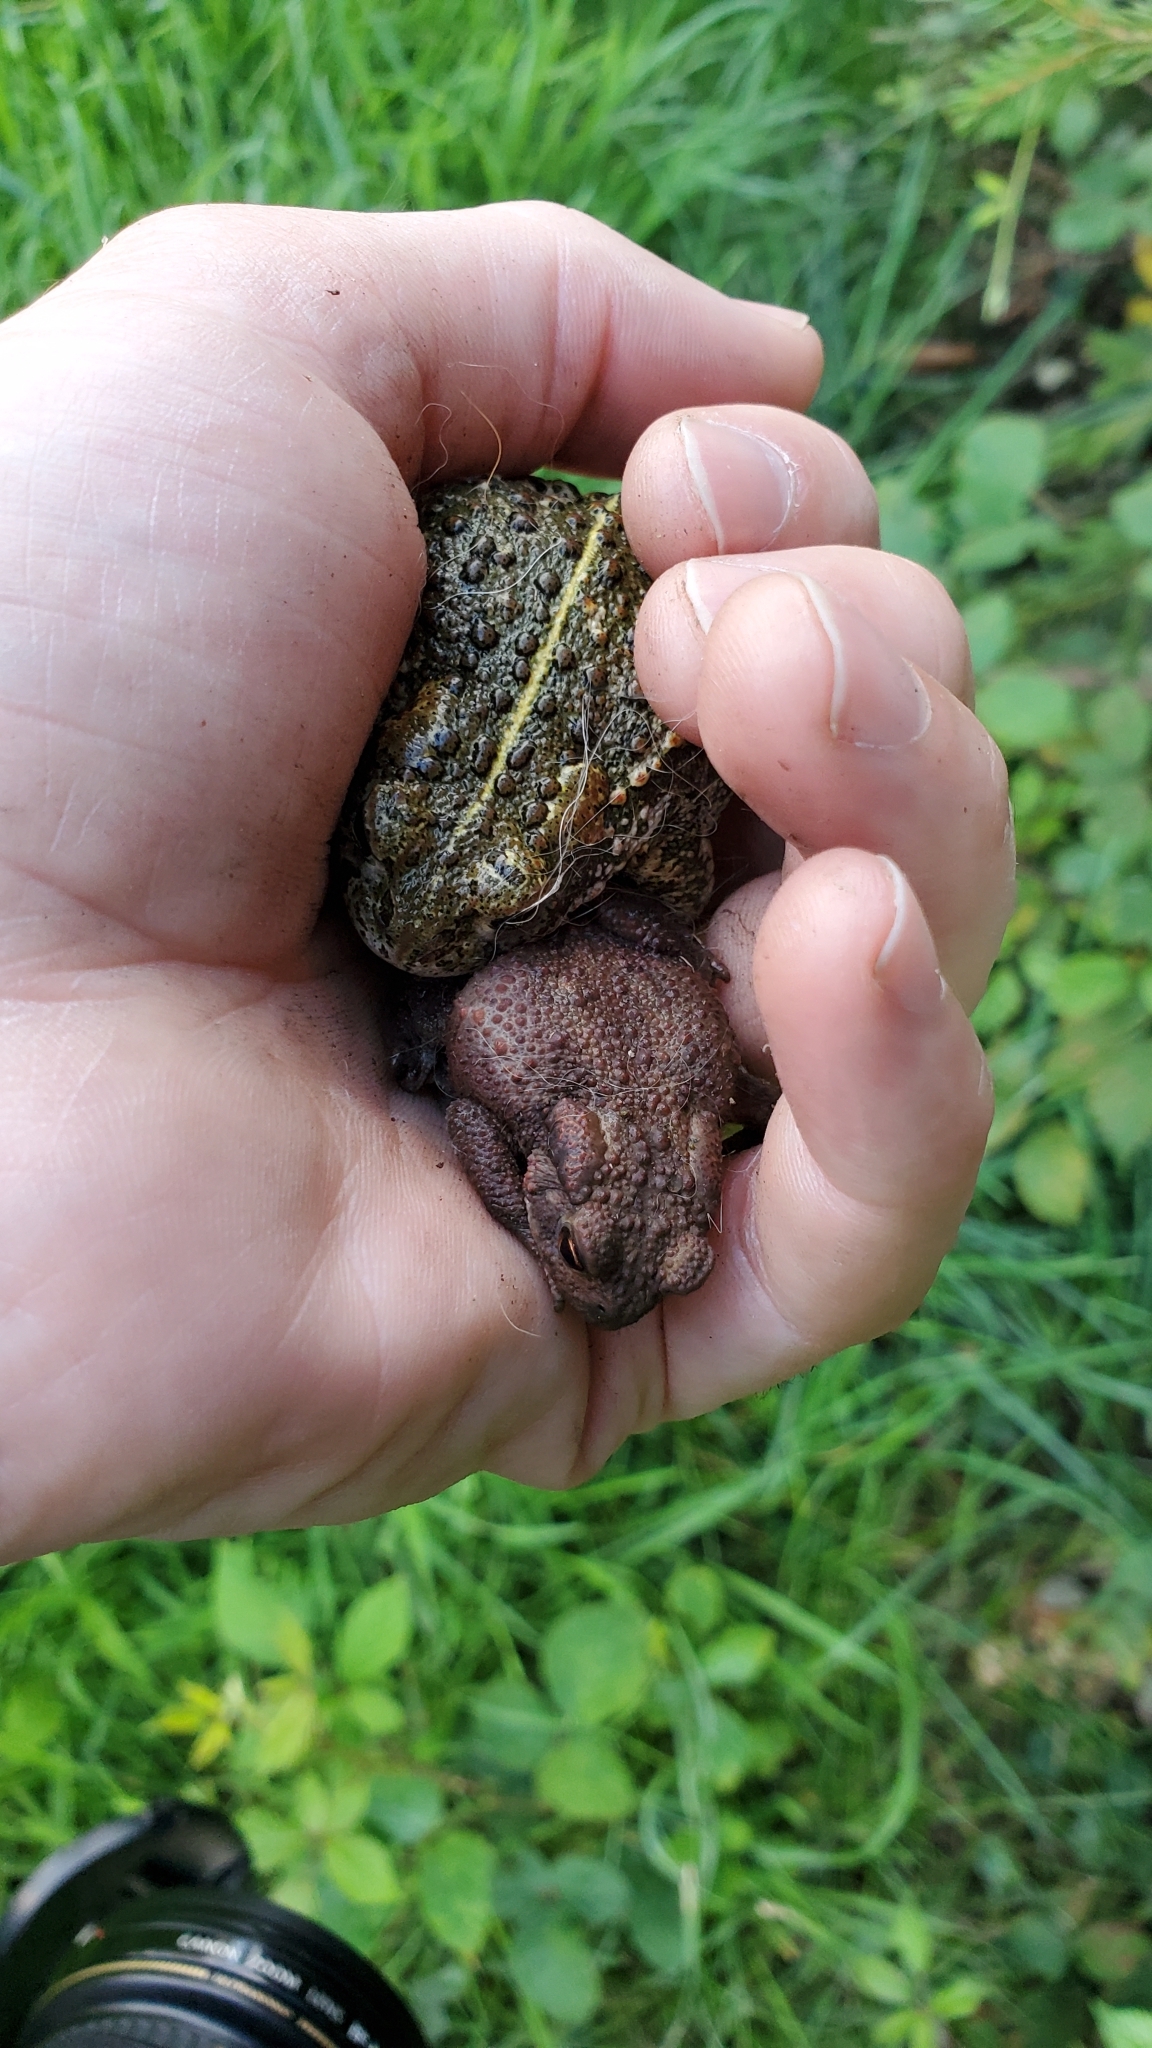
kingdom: Animalia
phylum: Chordata
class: Amphibia
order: Anura
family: Bufonidae
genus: Epidalea
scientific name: Epidalea calamita
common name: Natterjack toad
